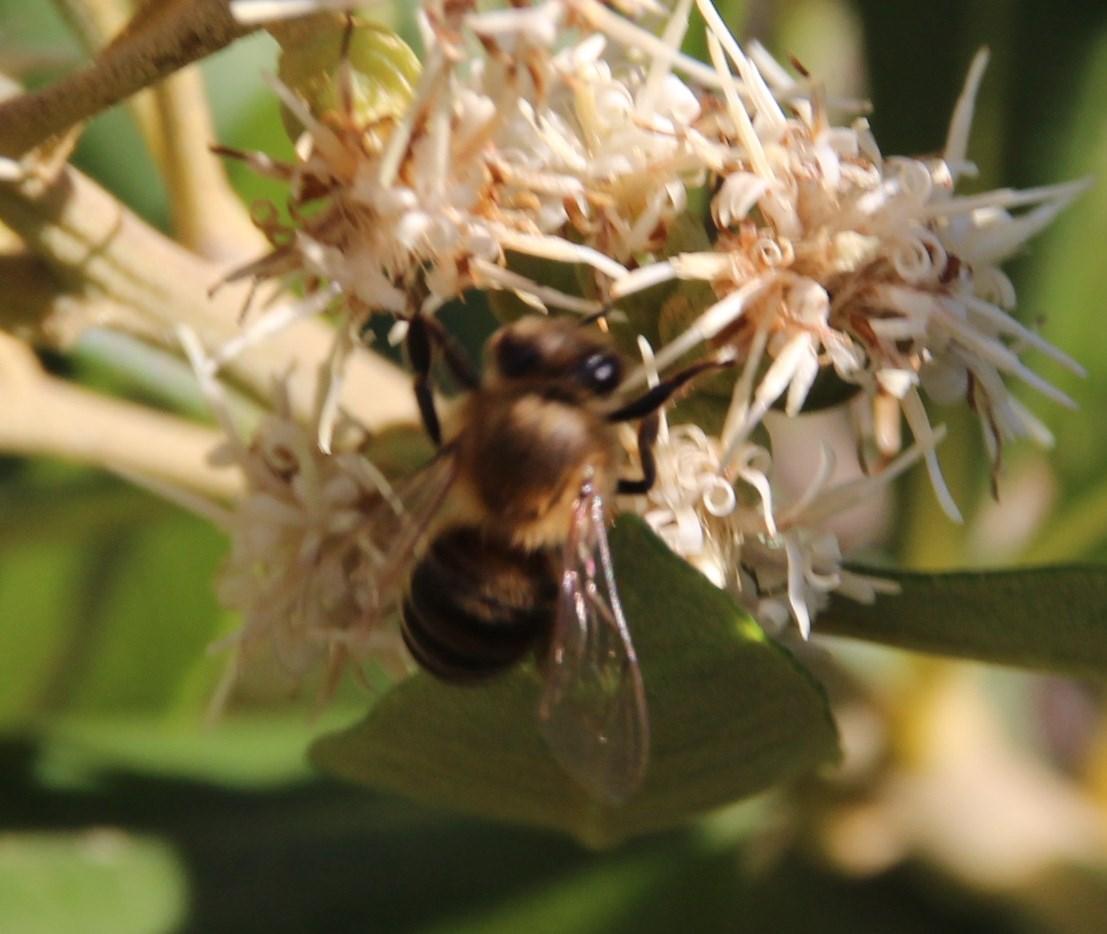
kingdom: Animalia
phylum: Arthropoda
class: Insecta
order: Hymenoptera
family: Apidae
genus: Apis
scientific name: Apis mellifera
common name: Honey bee
